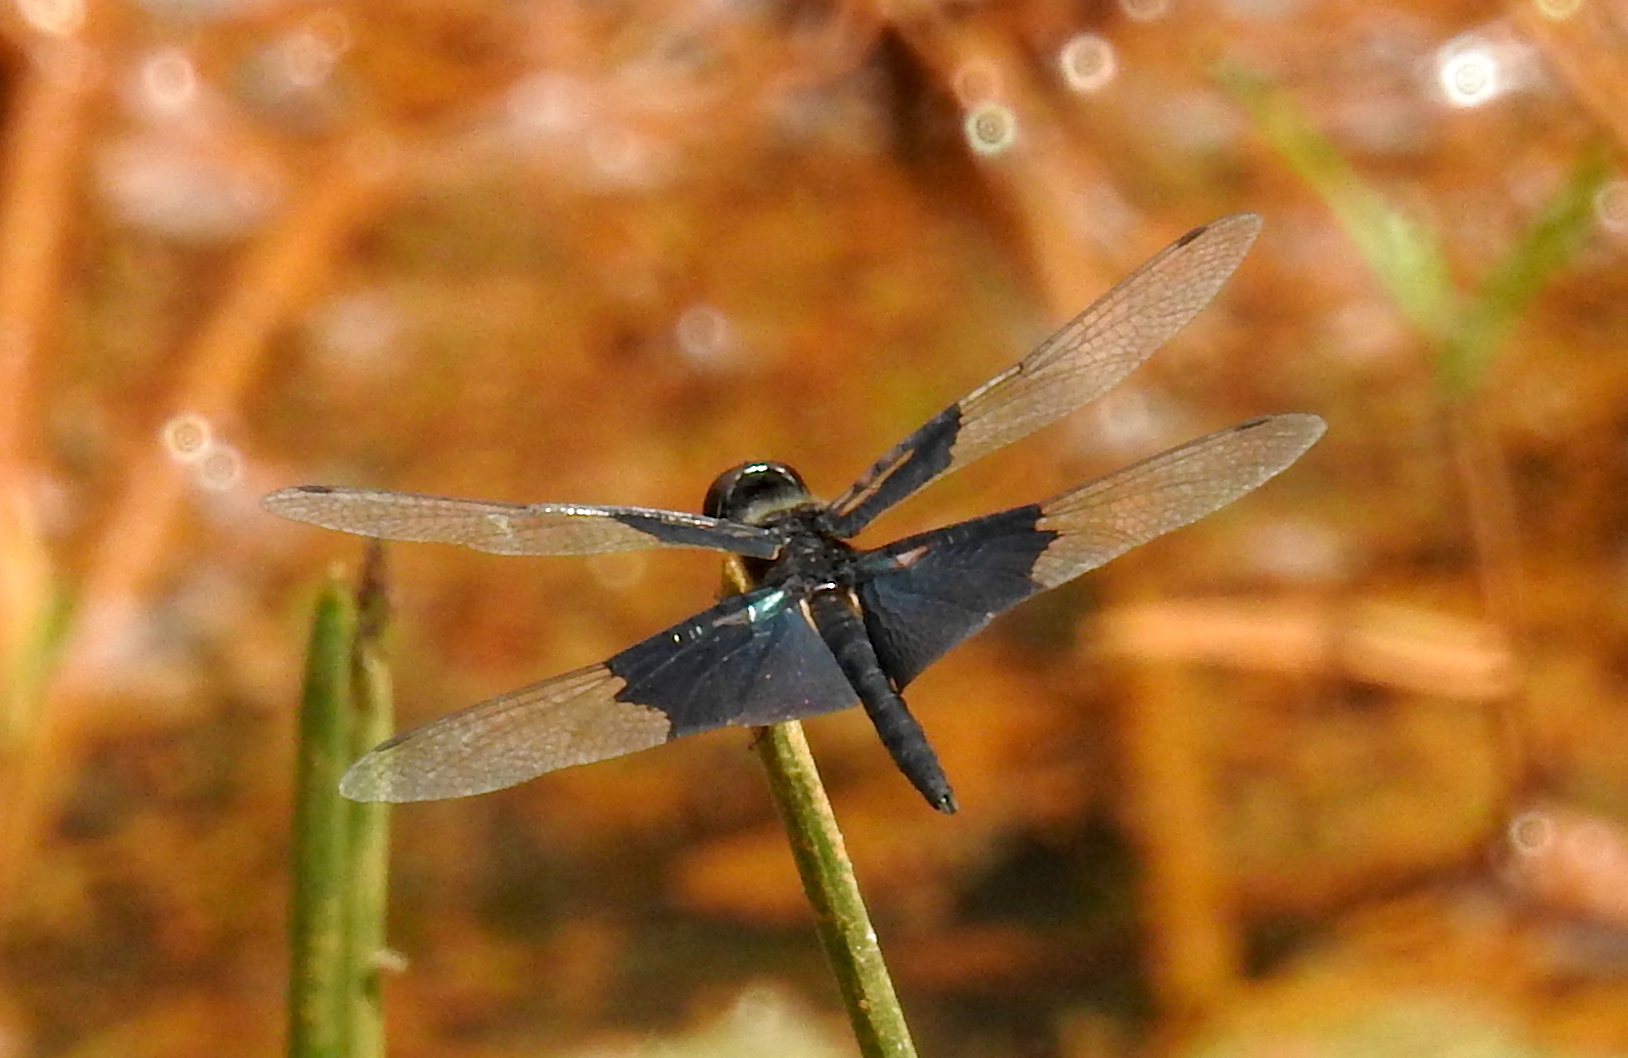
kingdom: Animalia
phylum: Arthropoda
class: Insecta
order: Odonata
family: Libellulidae
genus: Rhyothemis
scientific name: Rhyothemis triangularis
